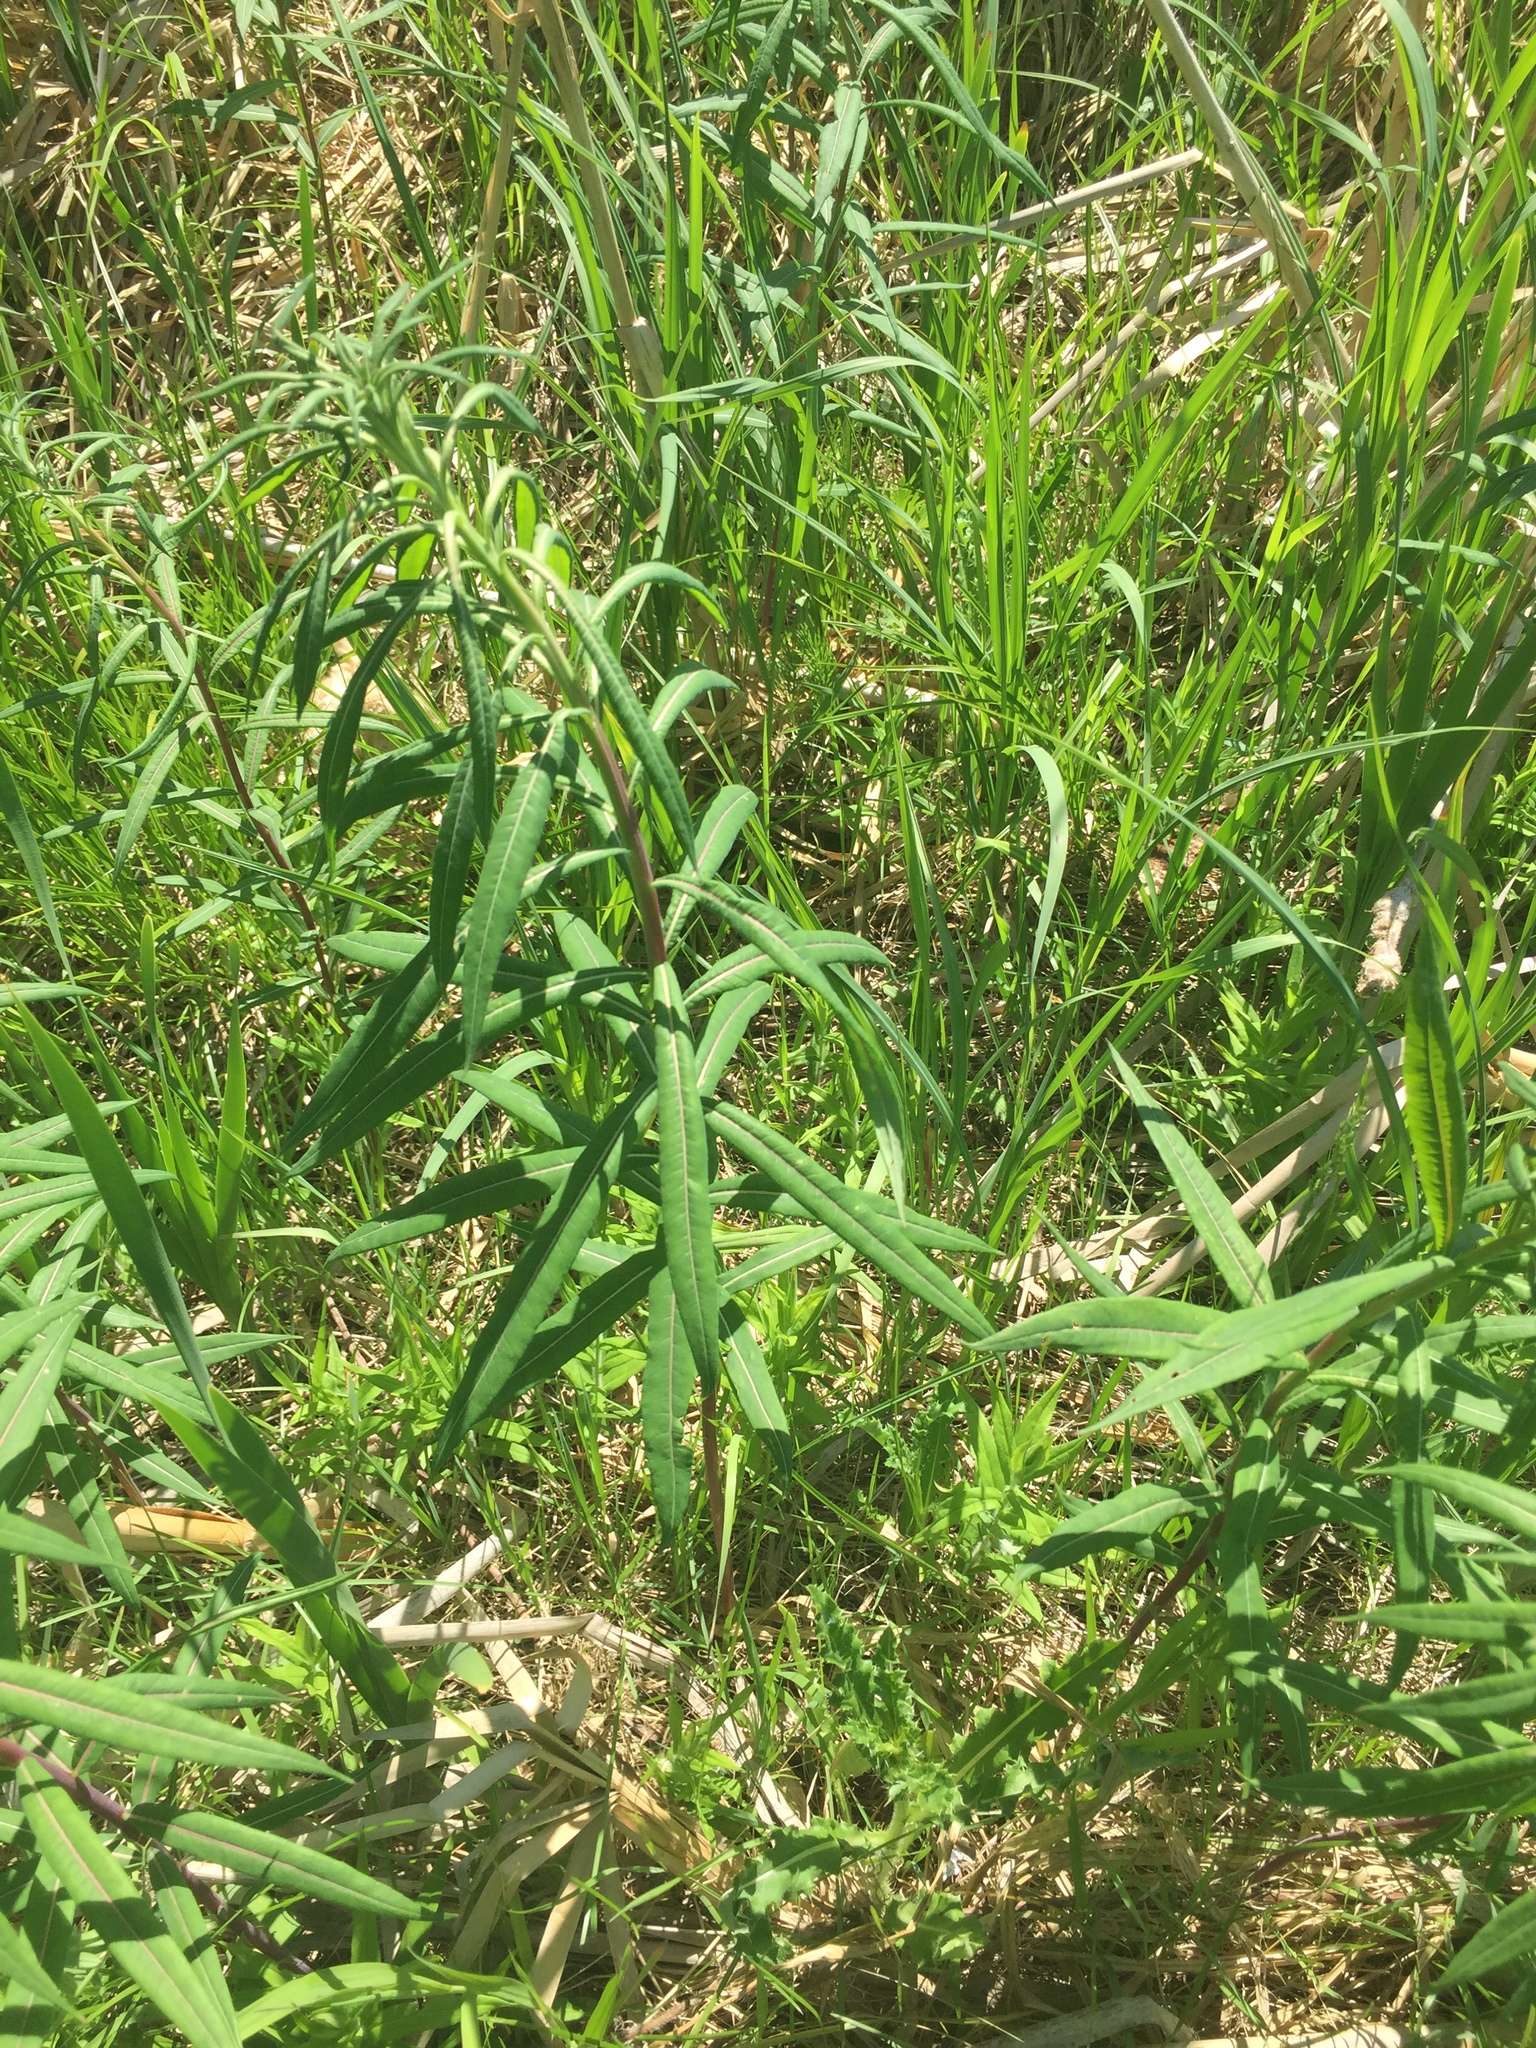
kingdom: Plantae
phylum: Tracheophyta
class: Magnoliopsida
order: Myrtales
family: Onagraceae
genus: Chamaenerion
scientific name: Chamaenerion angustifolium
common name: Fireweed
